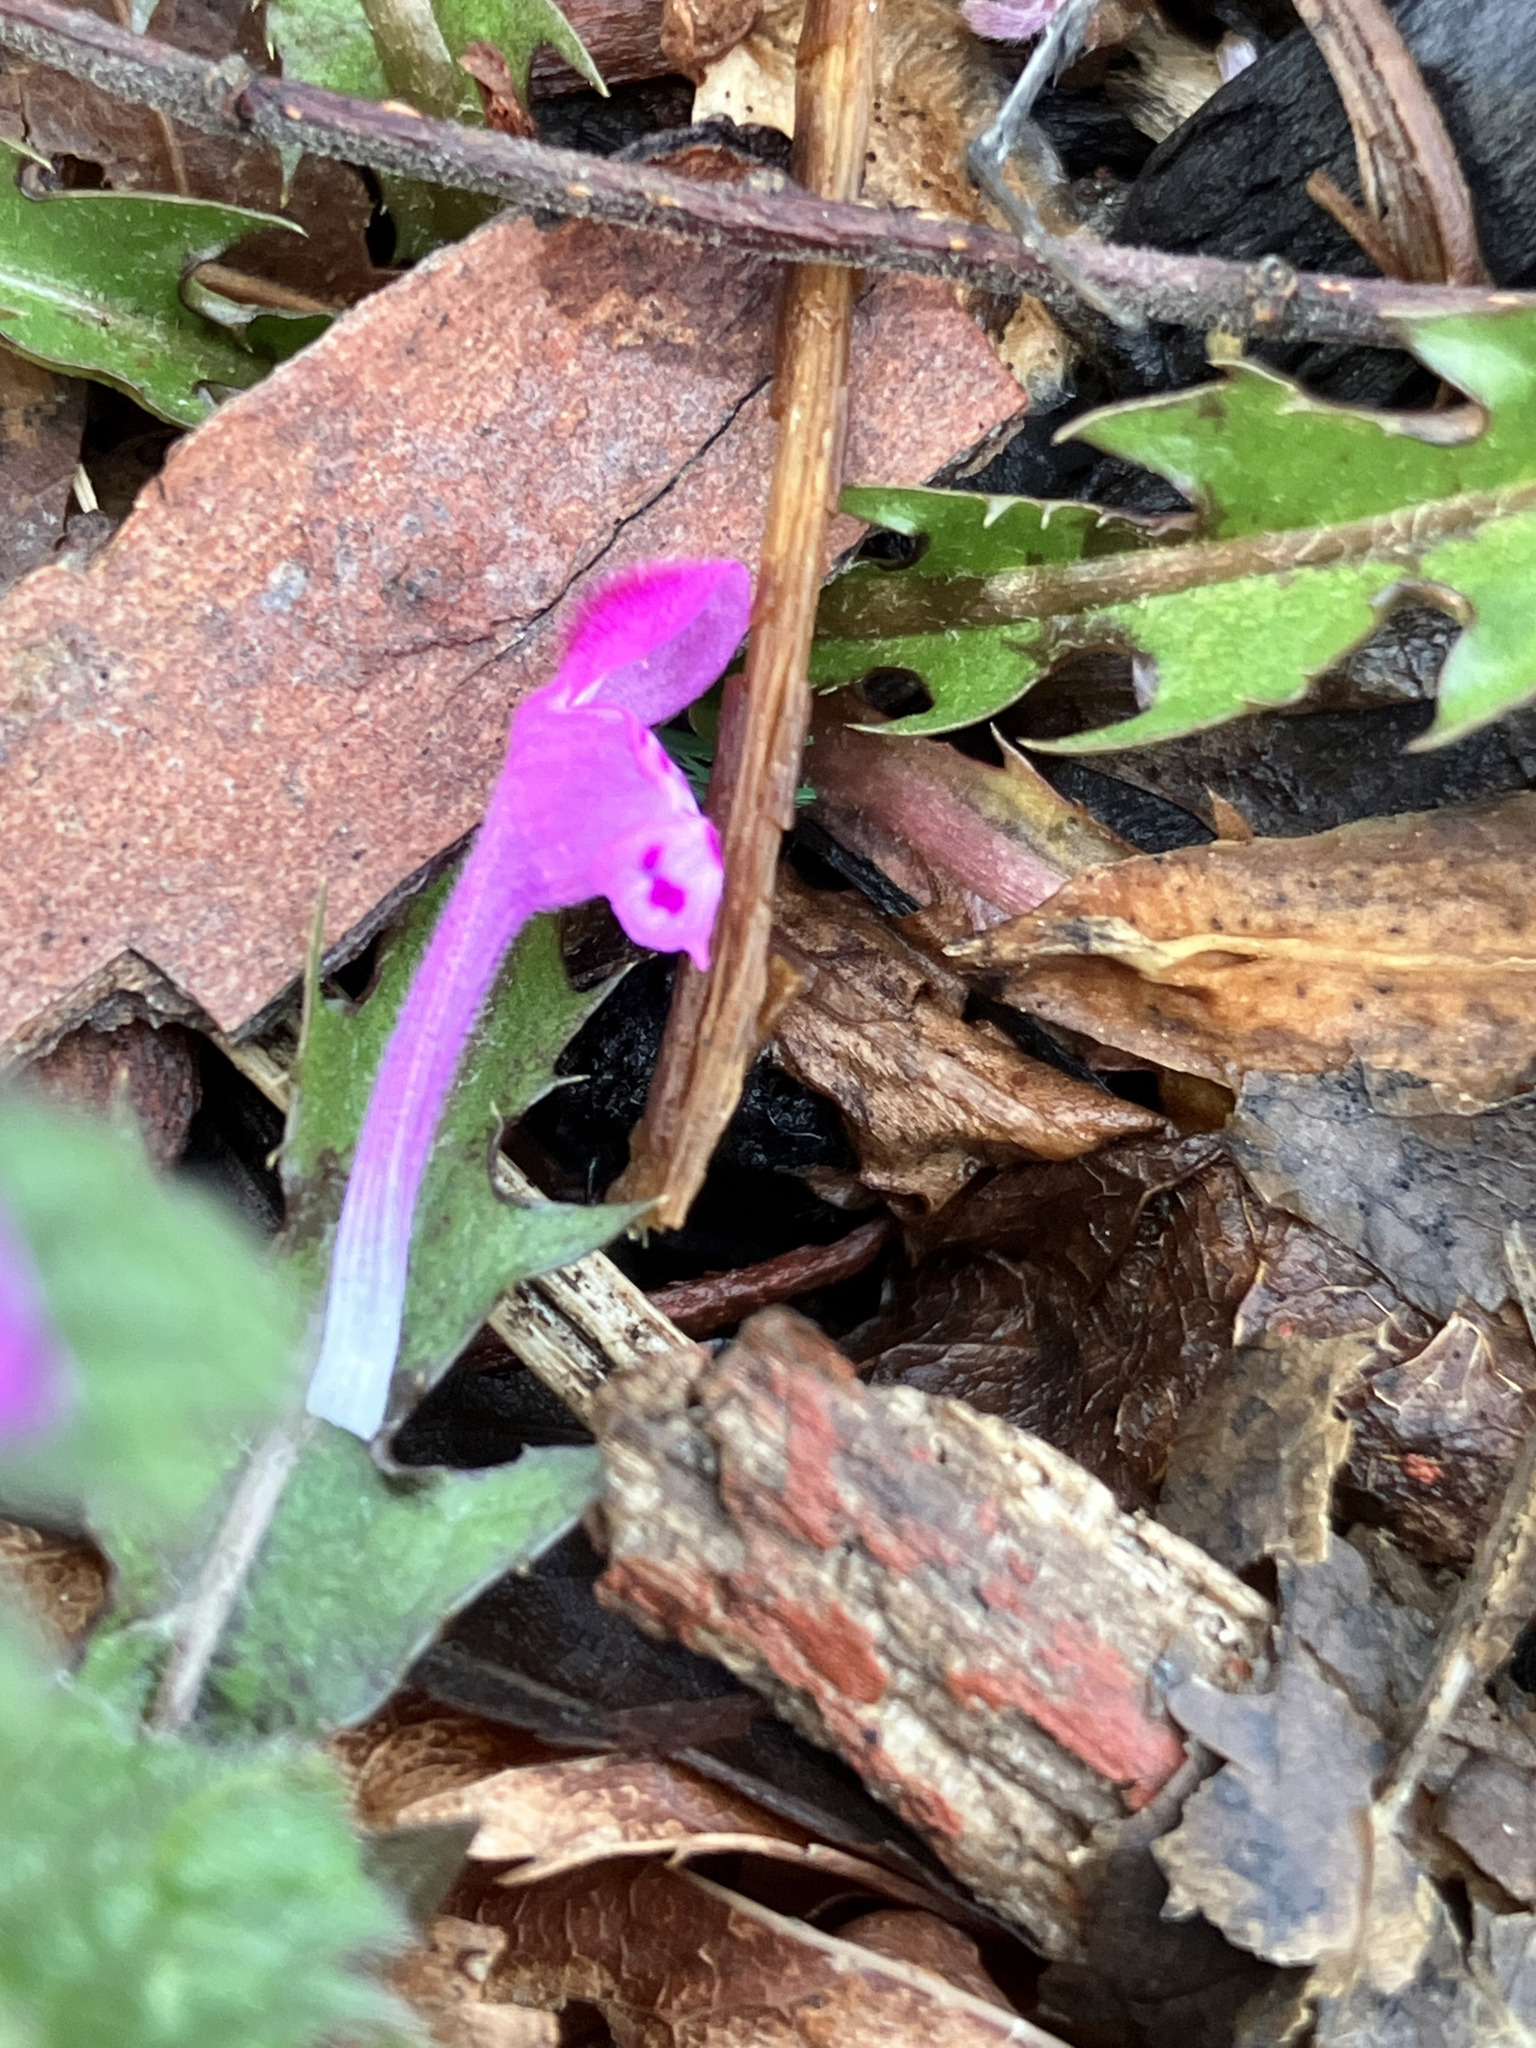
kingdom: Plantae
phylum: Tracheophyta
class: Magnoliopsida
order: Lamiales
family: Lamiaceae
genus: Lamium
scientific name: Lamium amplexicaule
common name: Henbit dead-nettle
